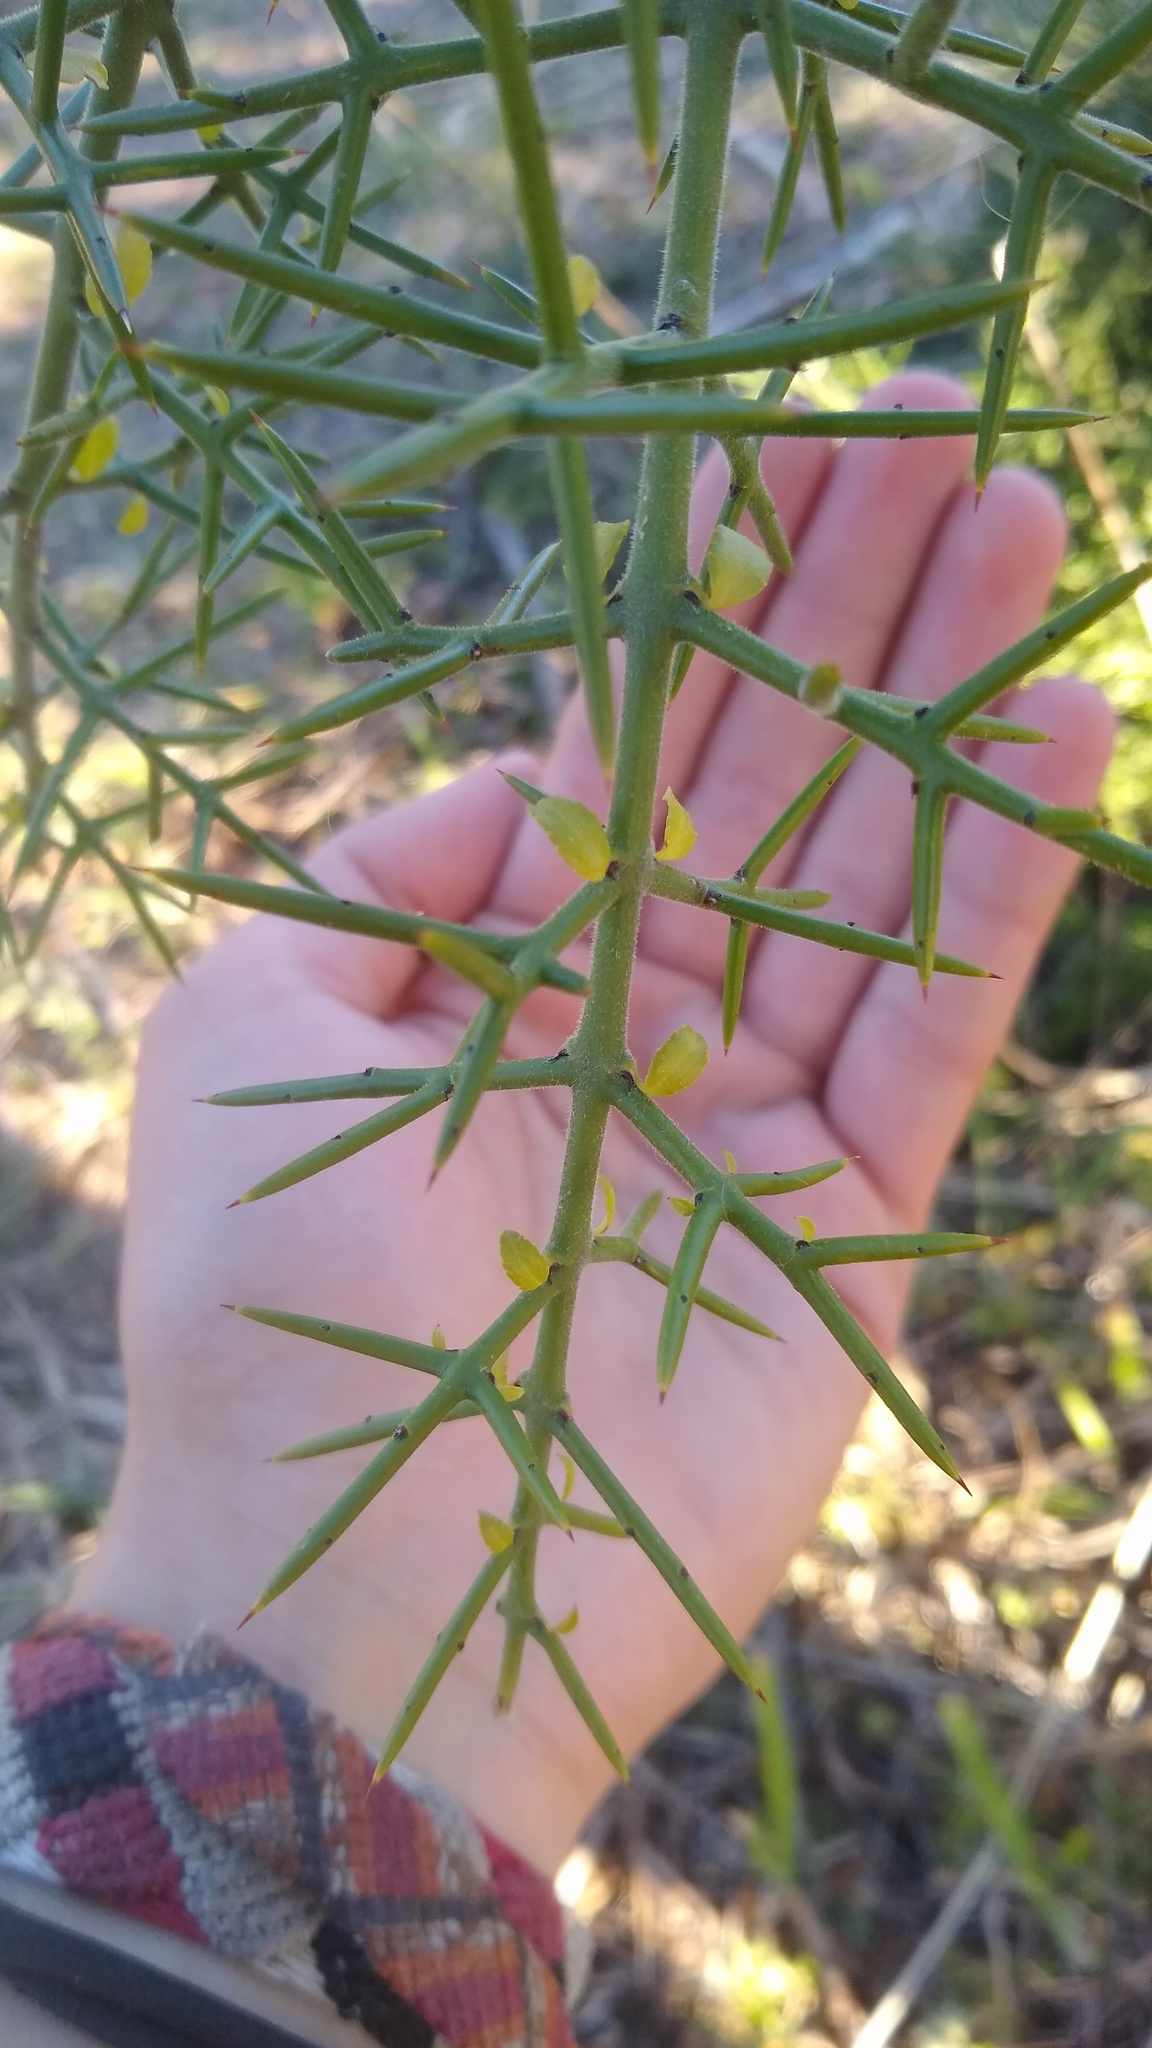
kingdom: Plantae
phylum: Tracheophyta
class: Magnoliopsida
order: Rosales
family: Rhamnaceae
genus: Colletia
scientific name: Colletia hystrix
